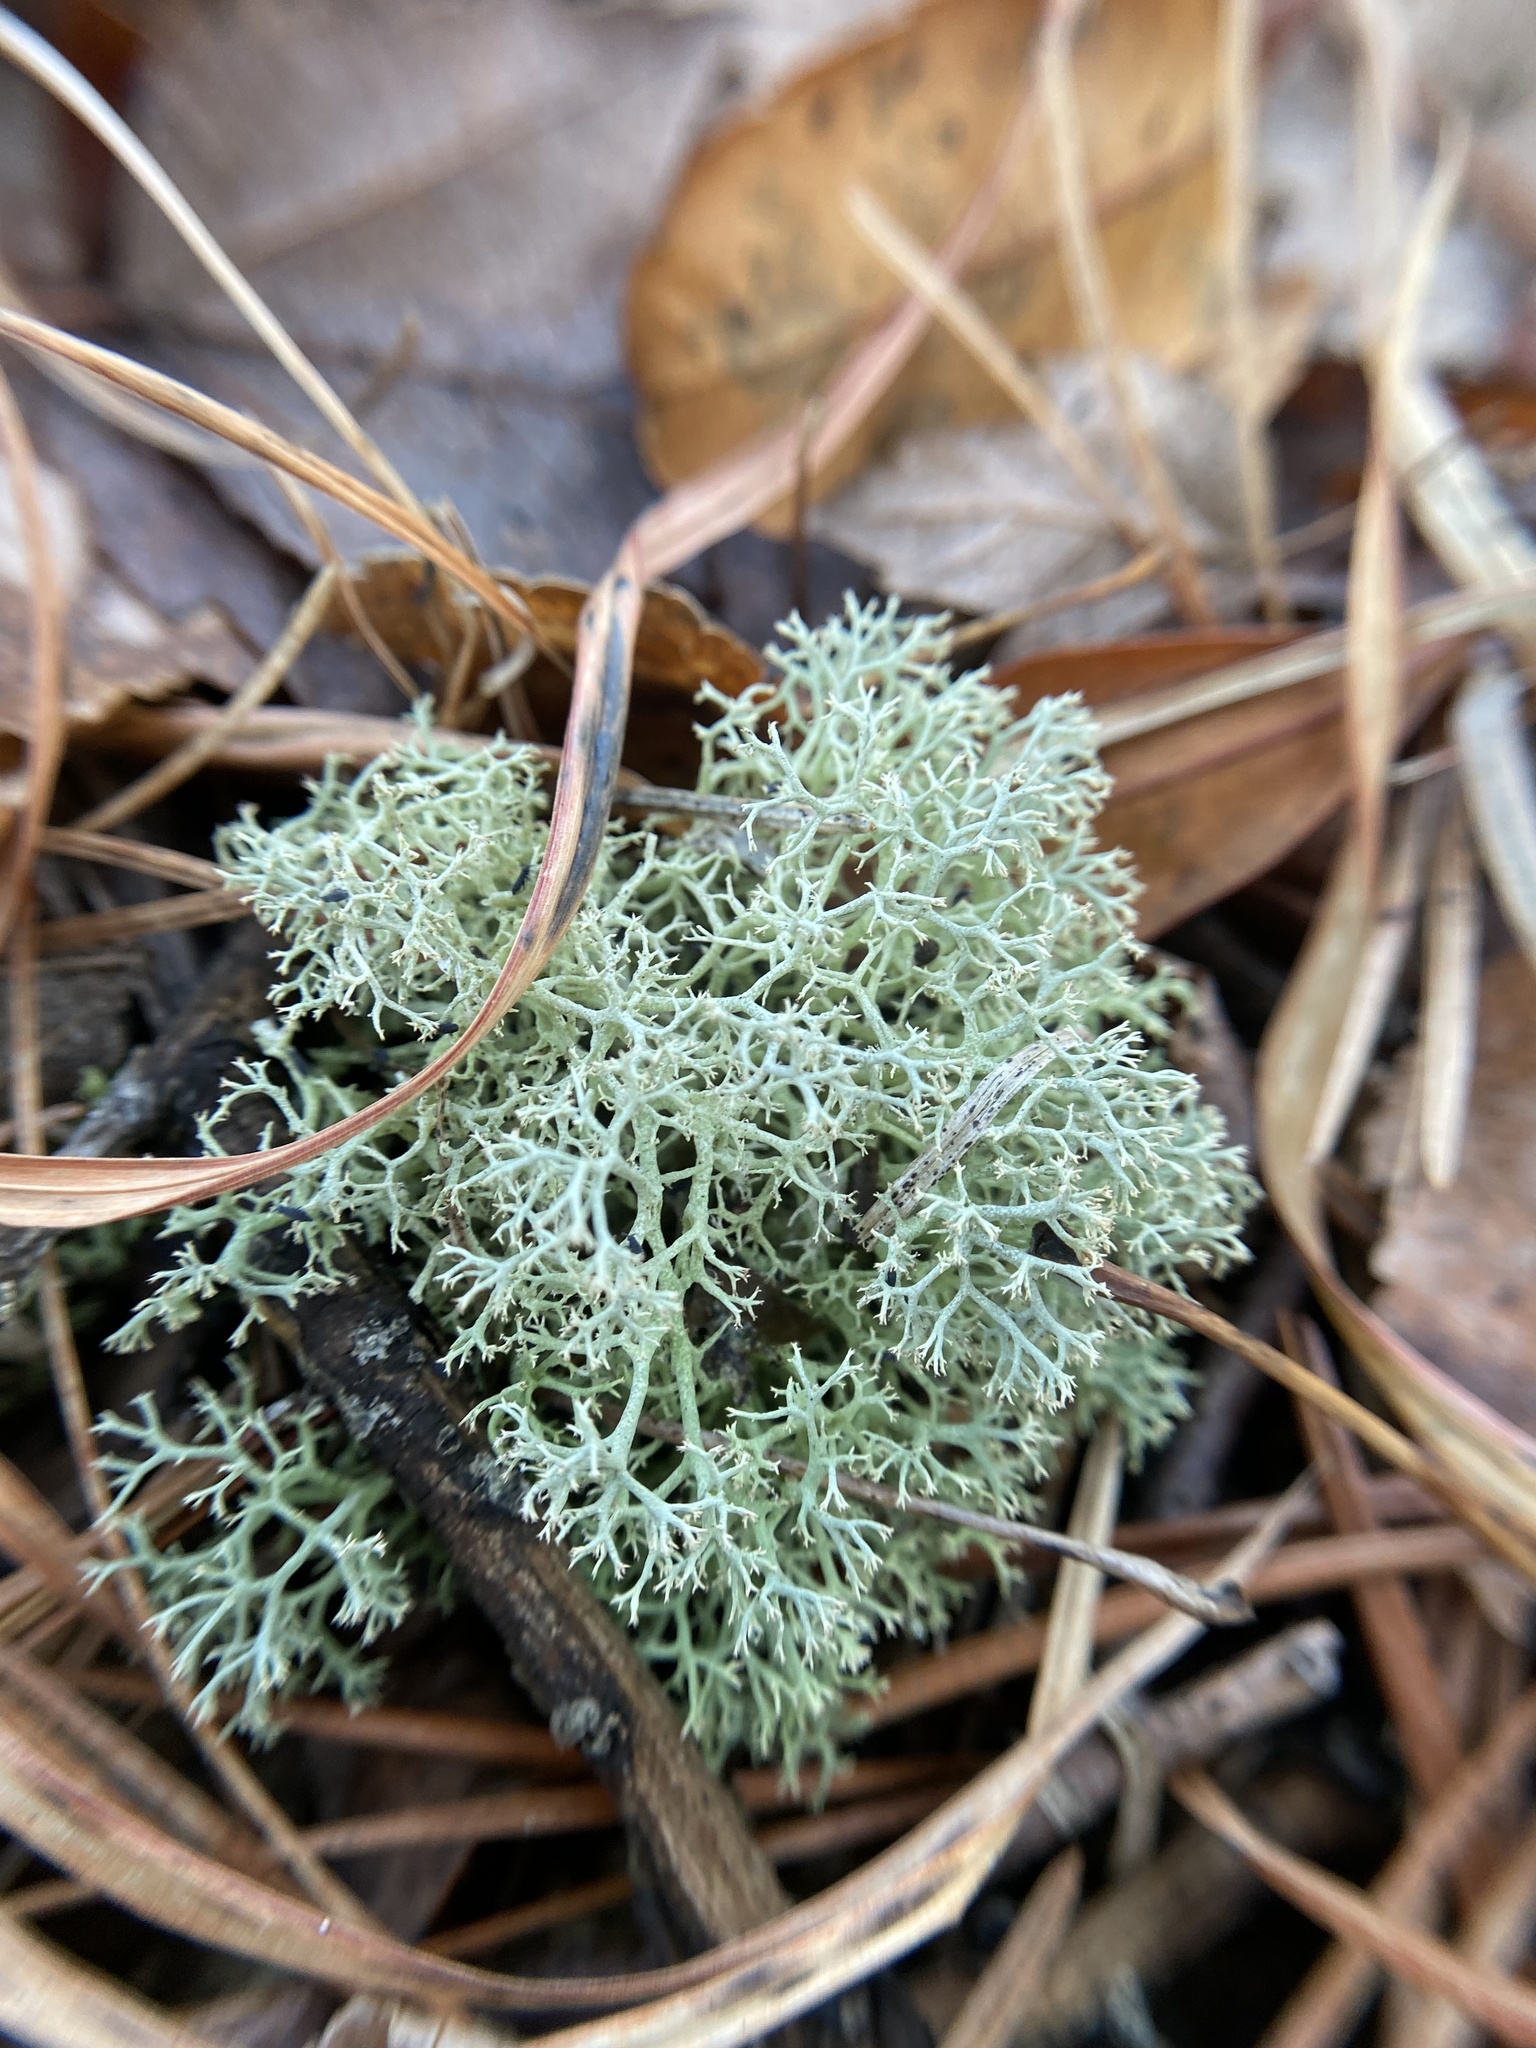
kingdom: Fungi
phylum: Ascomycota
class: Lecanoromycetes
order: Lecanorales
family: Cladoniaceae
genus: Cladonia
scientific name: Cladonia subtenuis
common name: Dixie reindeer lichen
